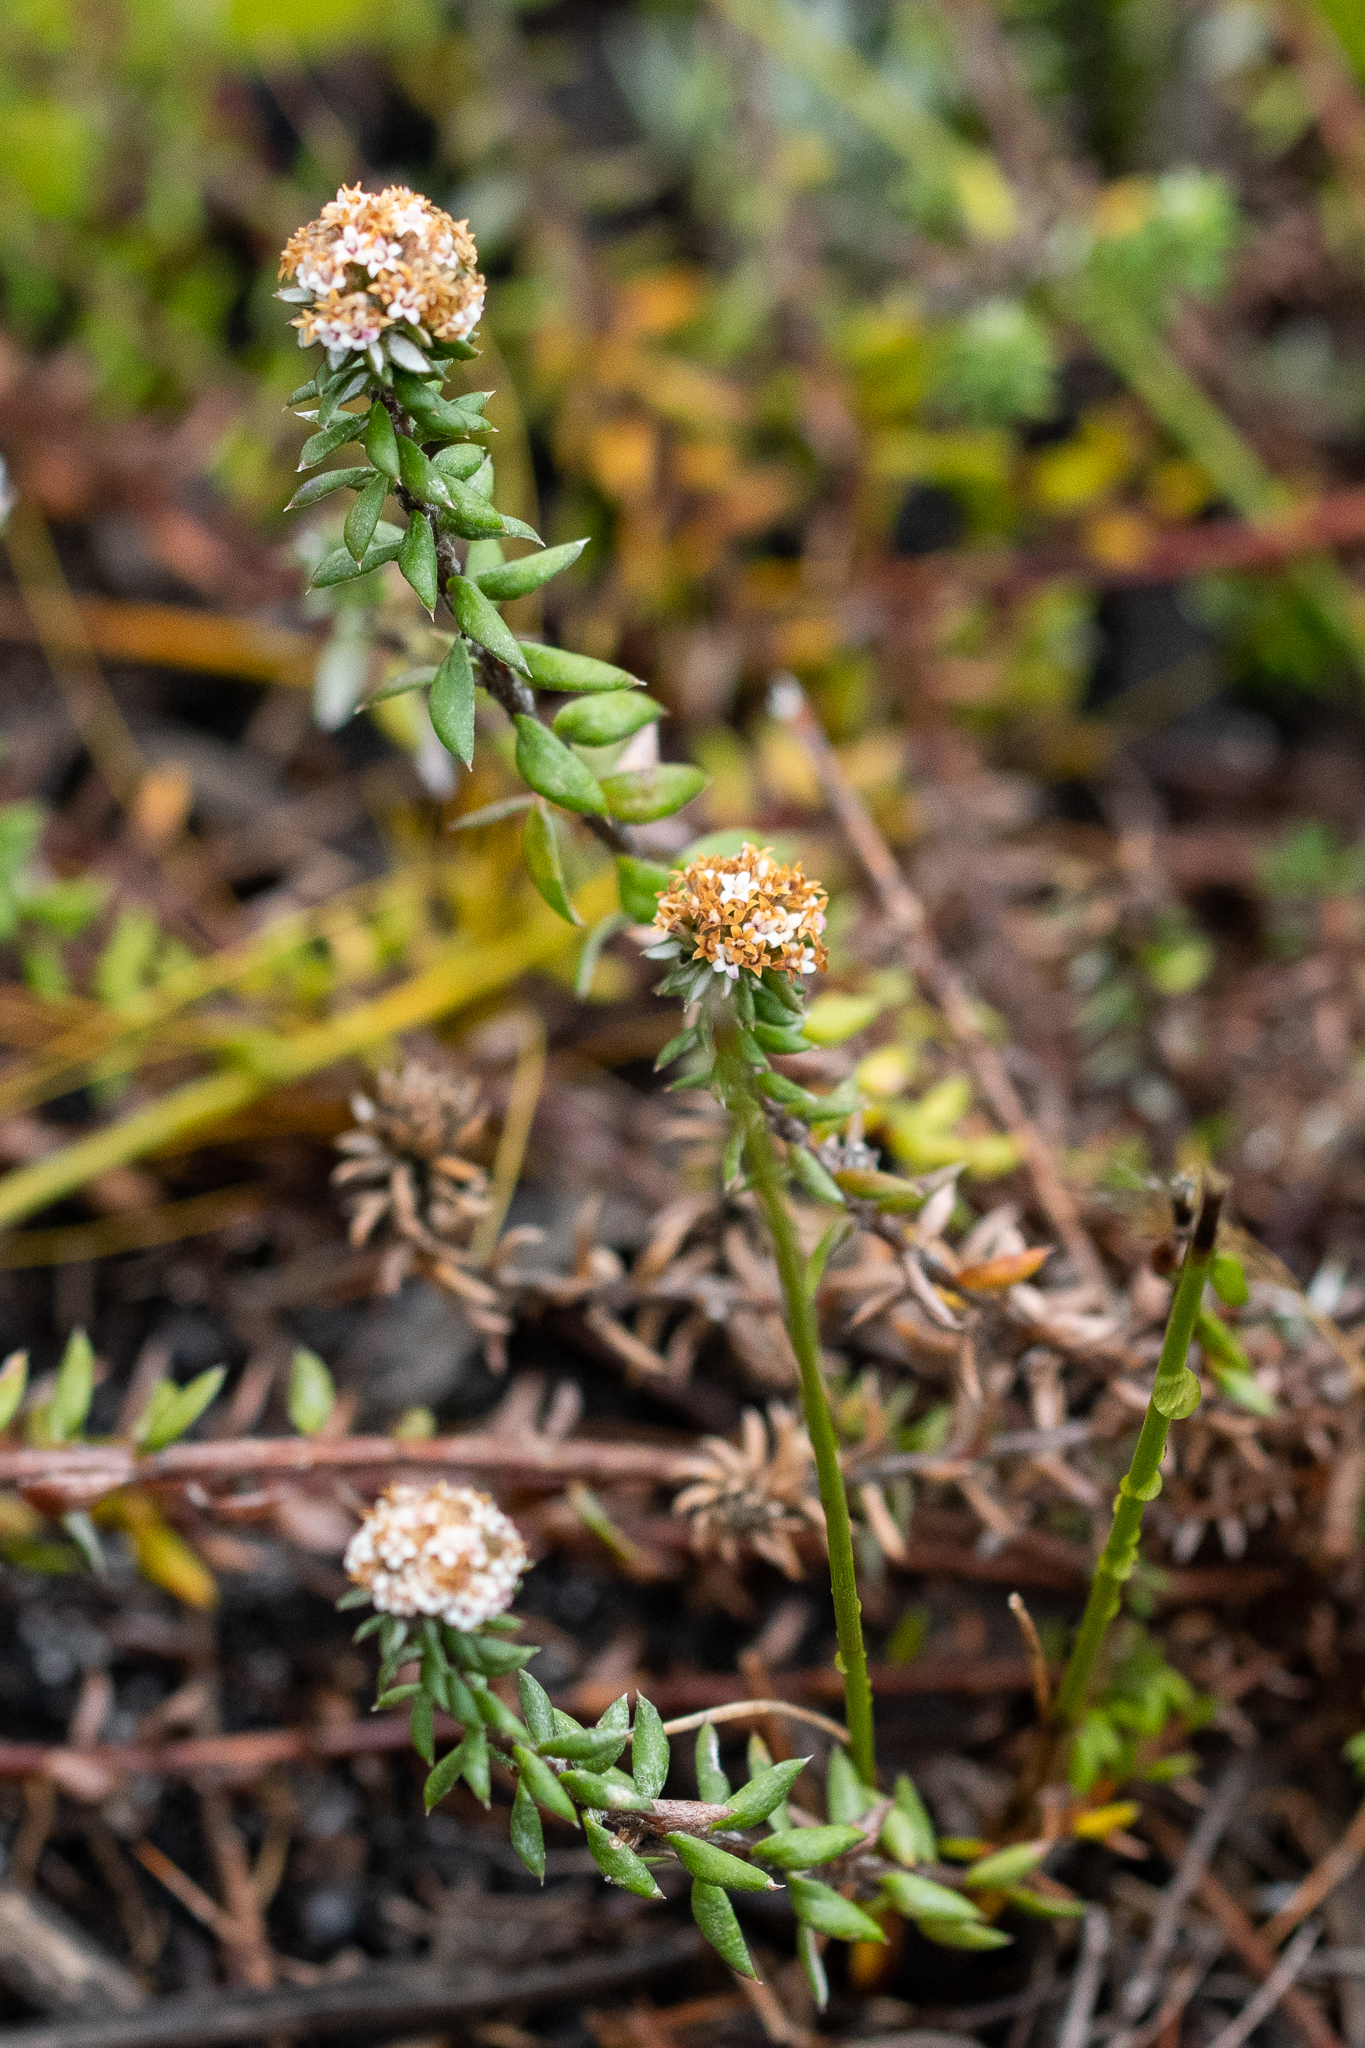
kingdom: Plantae
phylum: Tracheophyta
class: Magnoliopsida
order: Asterales
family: Asteraceae
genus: Stoebe
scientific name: Stoebe cyathuloides
